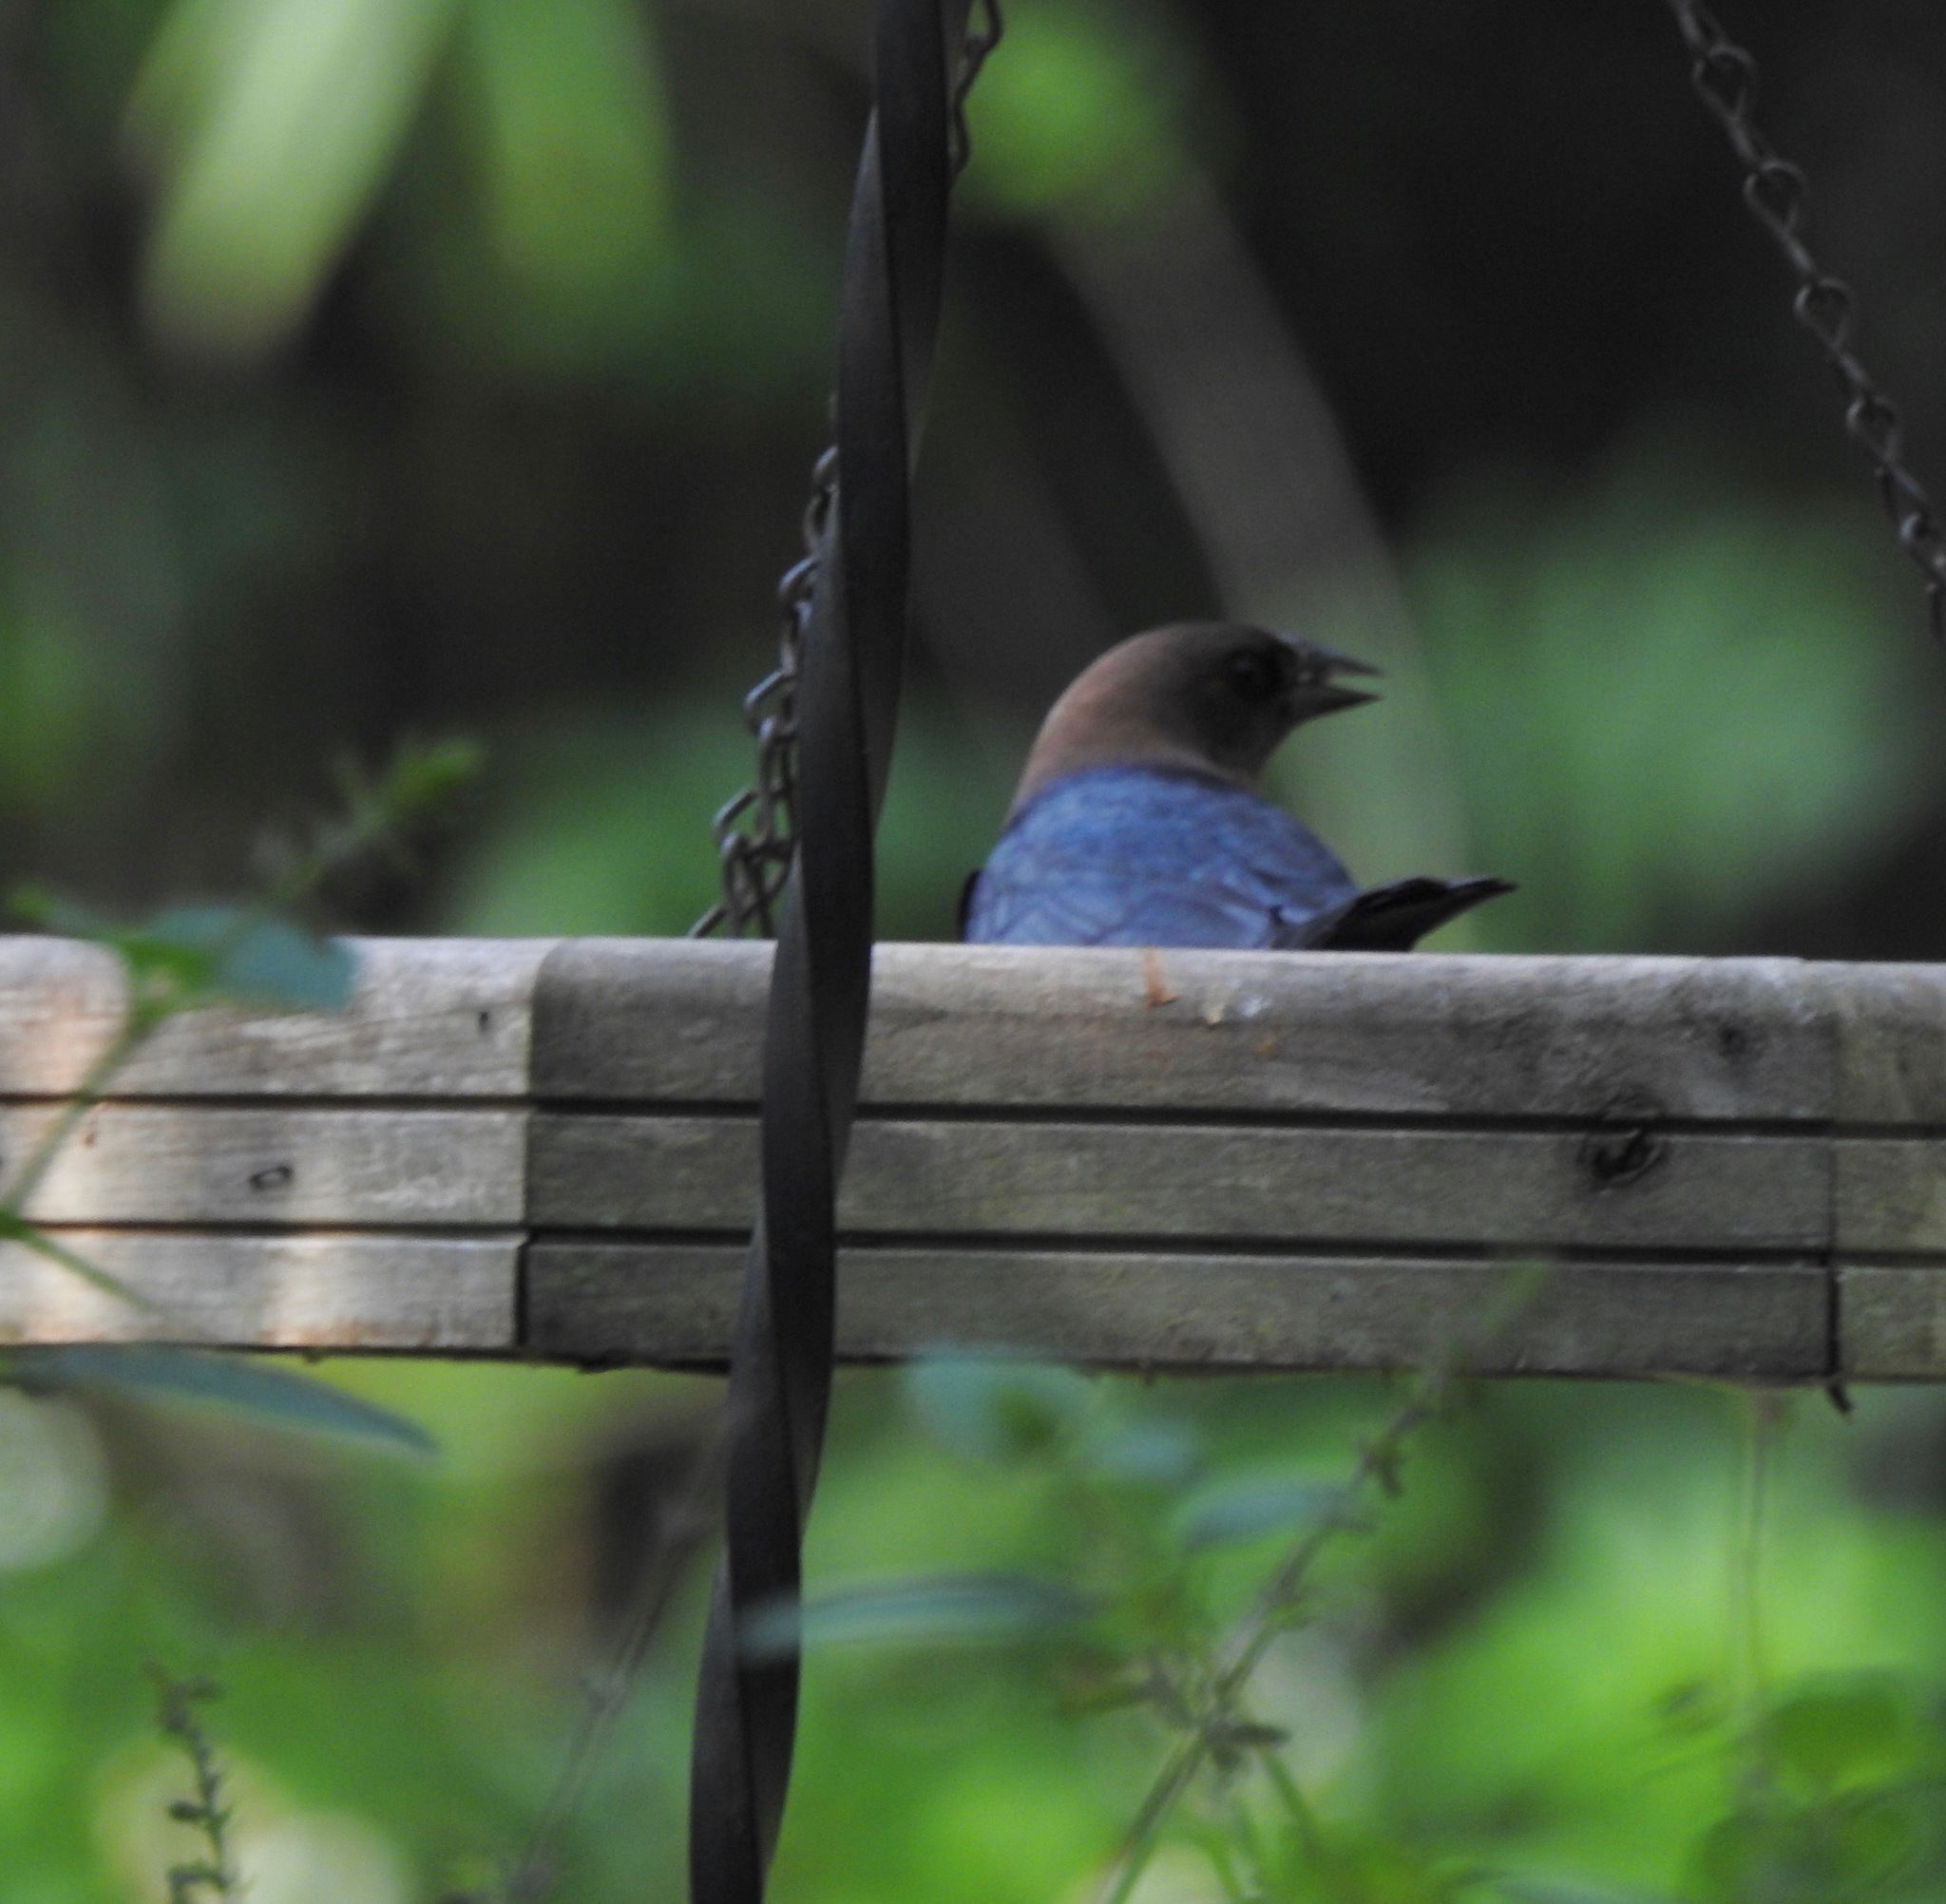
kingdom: Animalia
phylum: Chordata
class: Aves
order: Passeriformes
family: Icteridae
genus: Molothrus
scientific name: Molothrus ater
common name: Brown-headed cowbird
